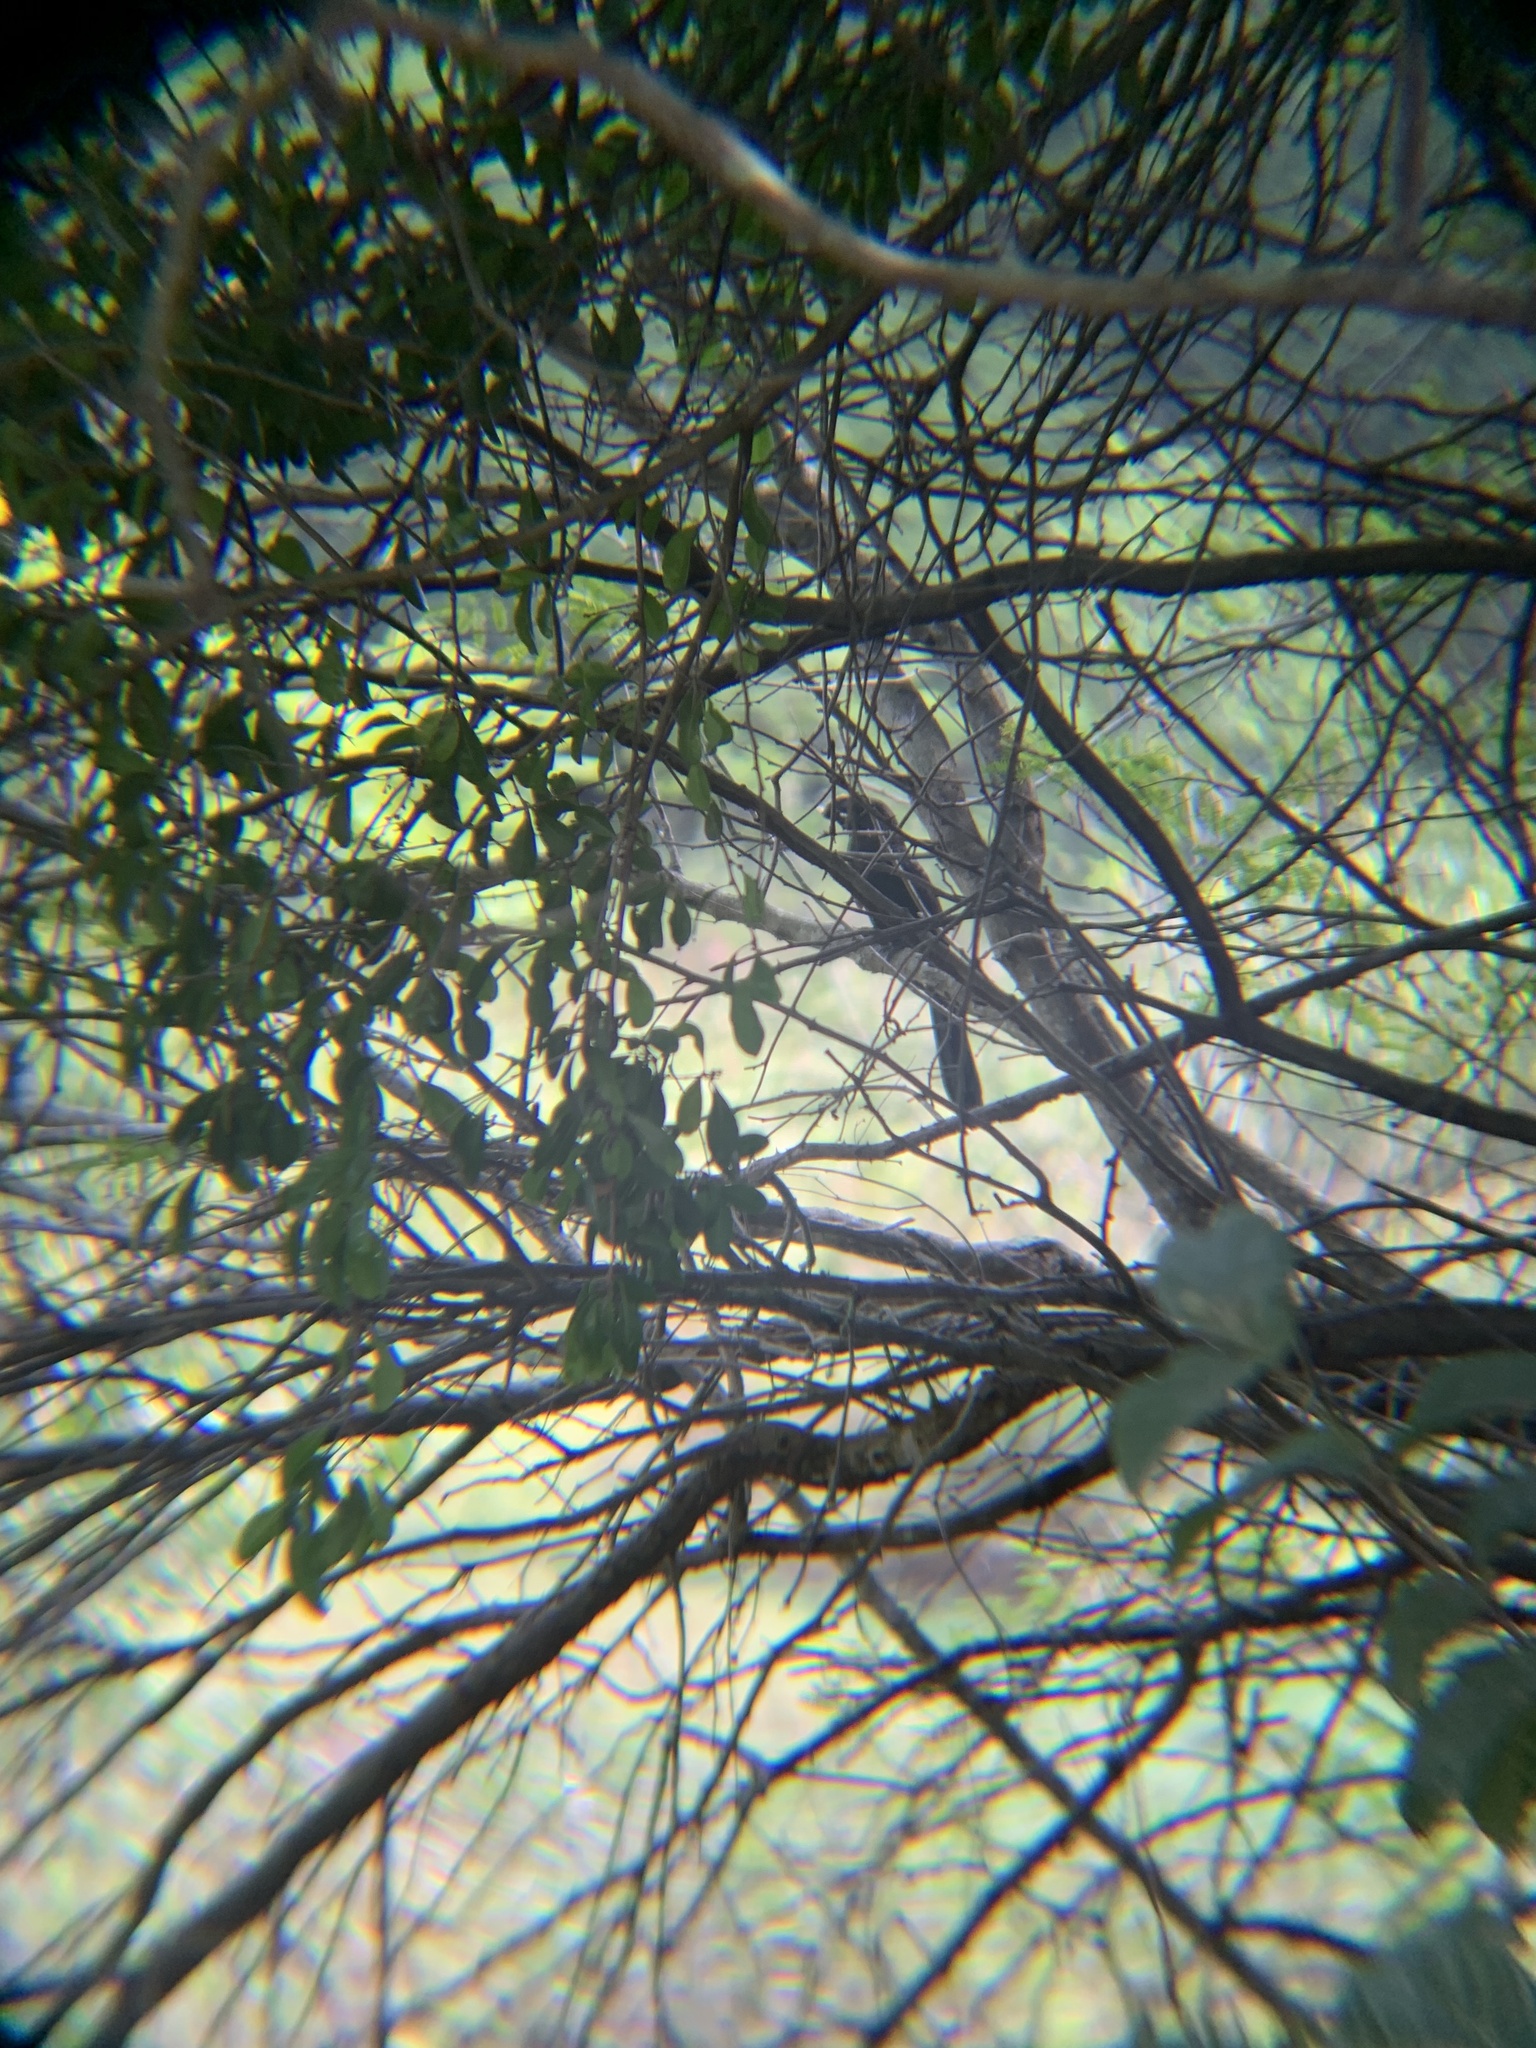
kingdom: Animalia
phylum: Chordata
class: Aves
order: Cuculiformes
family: Cuculidae
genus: Crotophaga
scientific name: Crotophaga ani
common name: Smooth-billed ani
